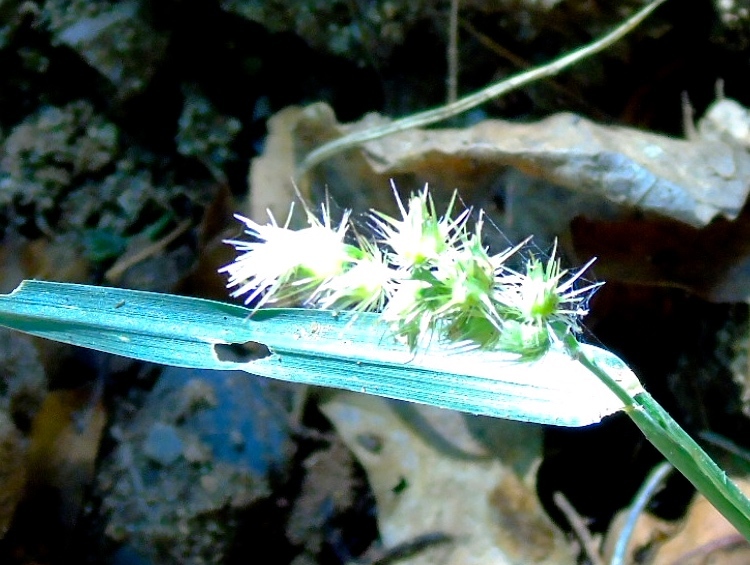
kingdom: Plantae
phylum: Tracheophyta
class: Liliopsida
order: Poales
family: Poaceae
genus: Cenchrus
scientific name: Cenchrus echinatus
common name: Southern sandbur
